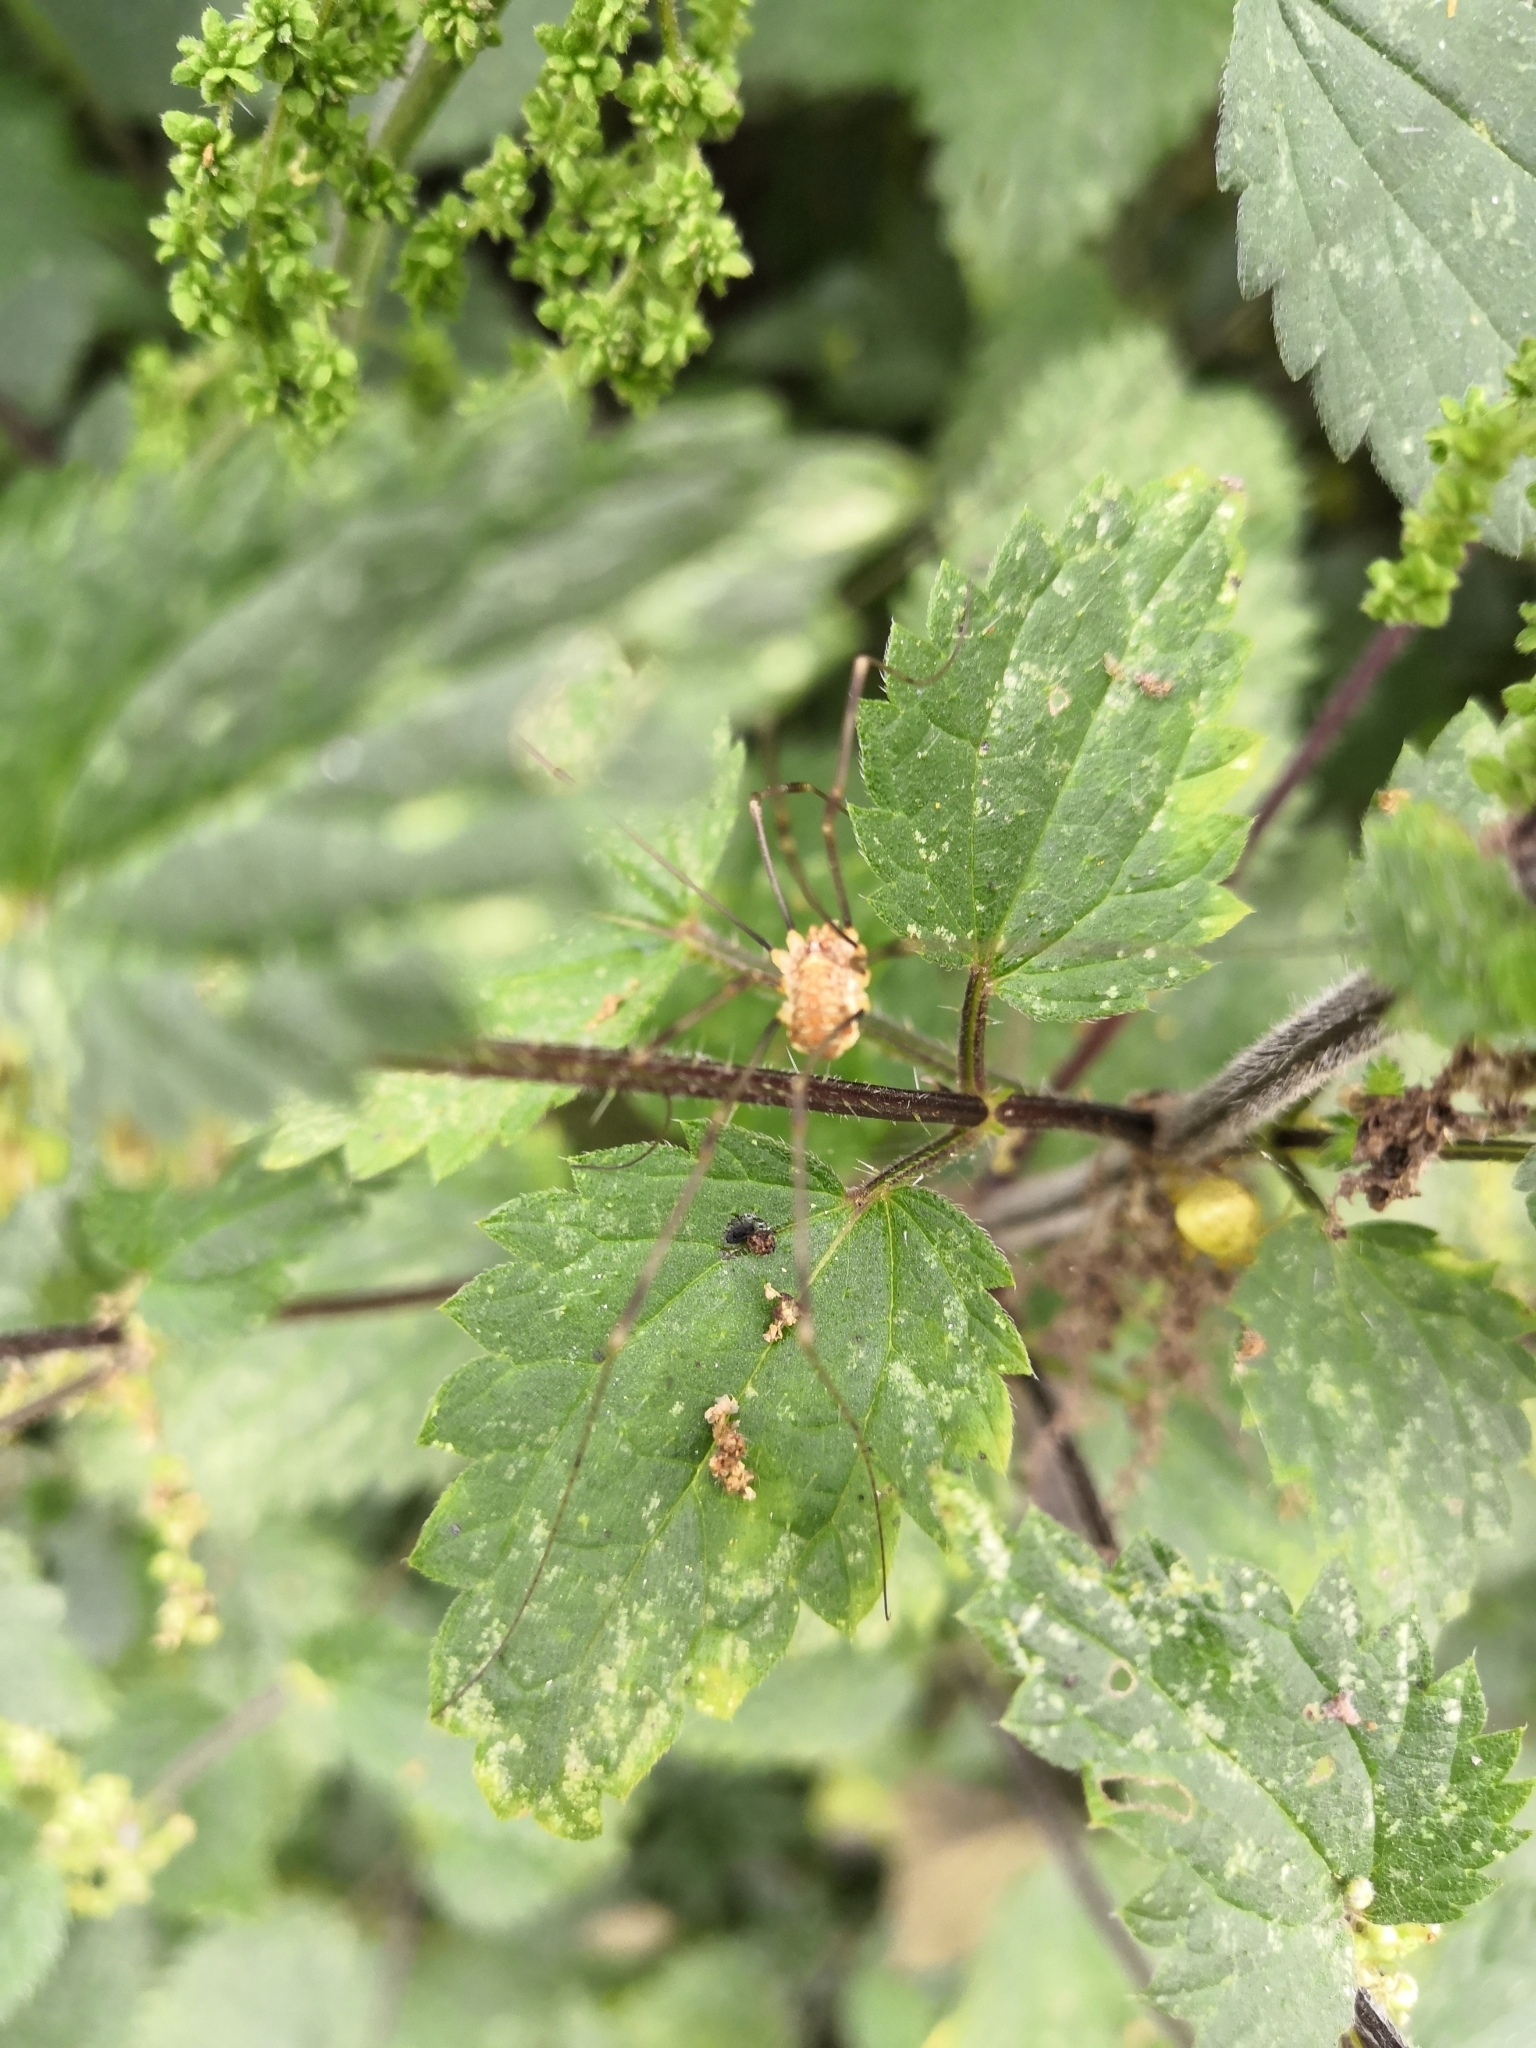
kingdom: Animalia
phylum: Arthropoda
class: Arachnida
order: Opiliones
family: Phalangiidae
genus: Opilio
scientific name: Opilio canestrinii
